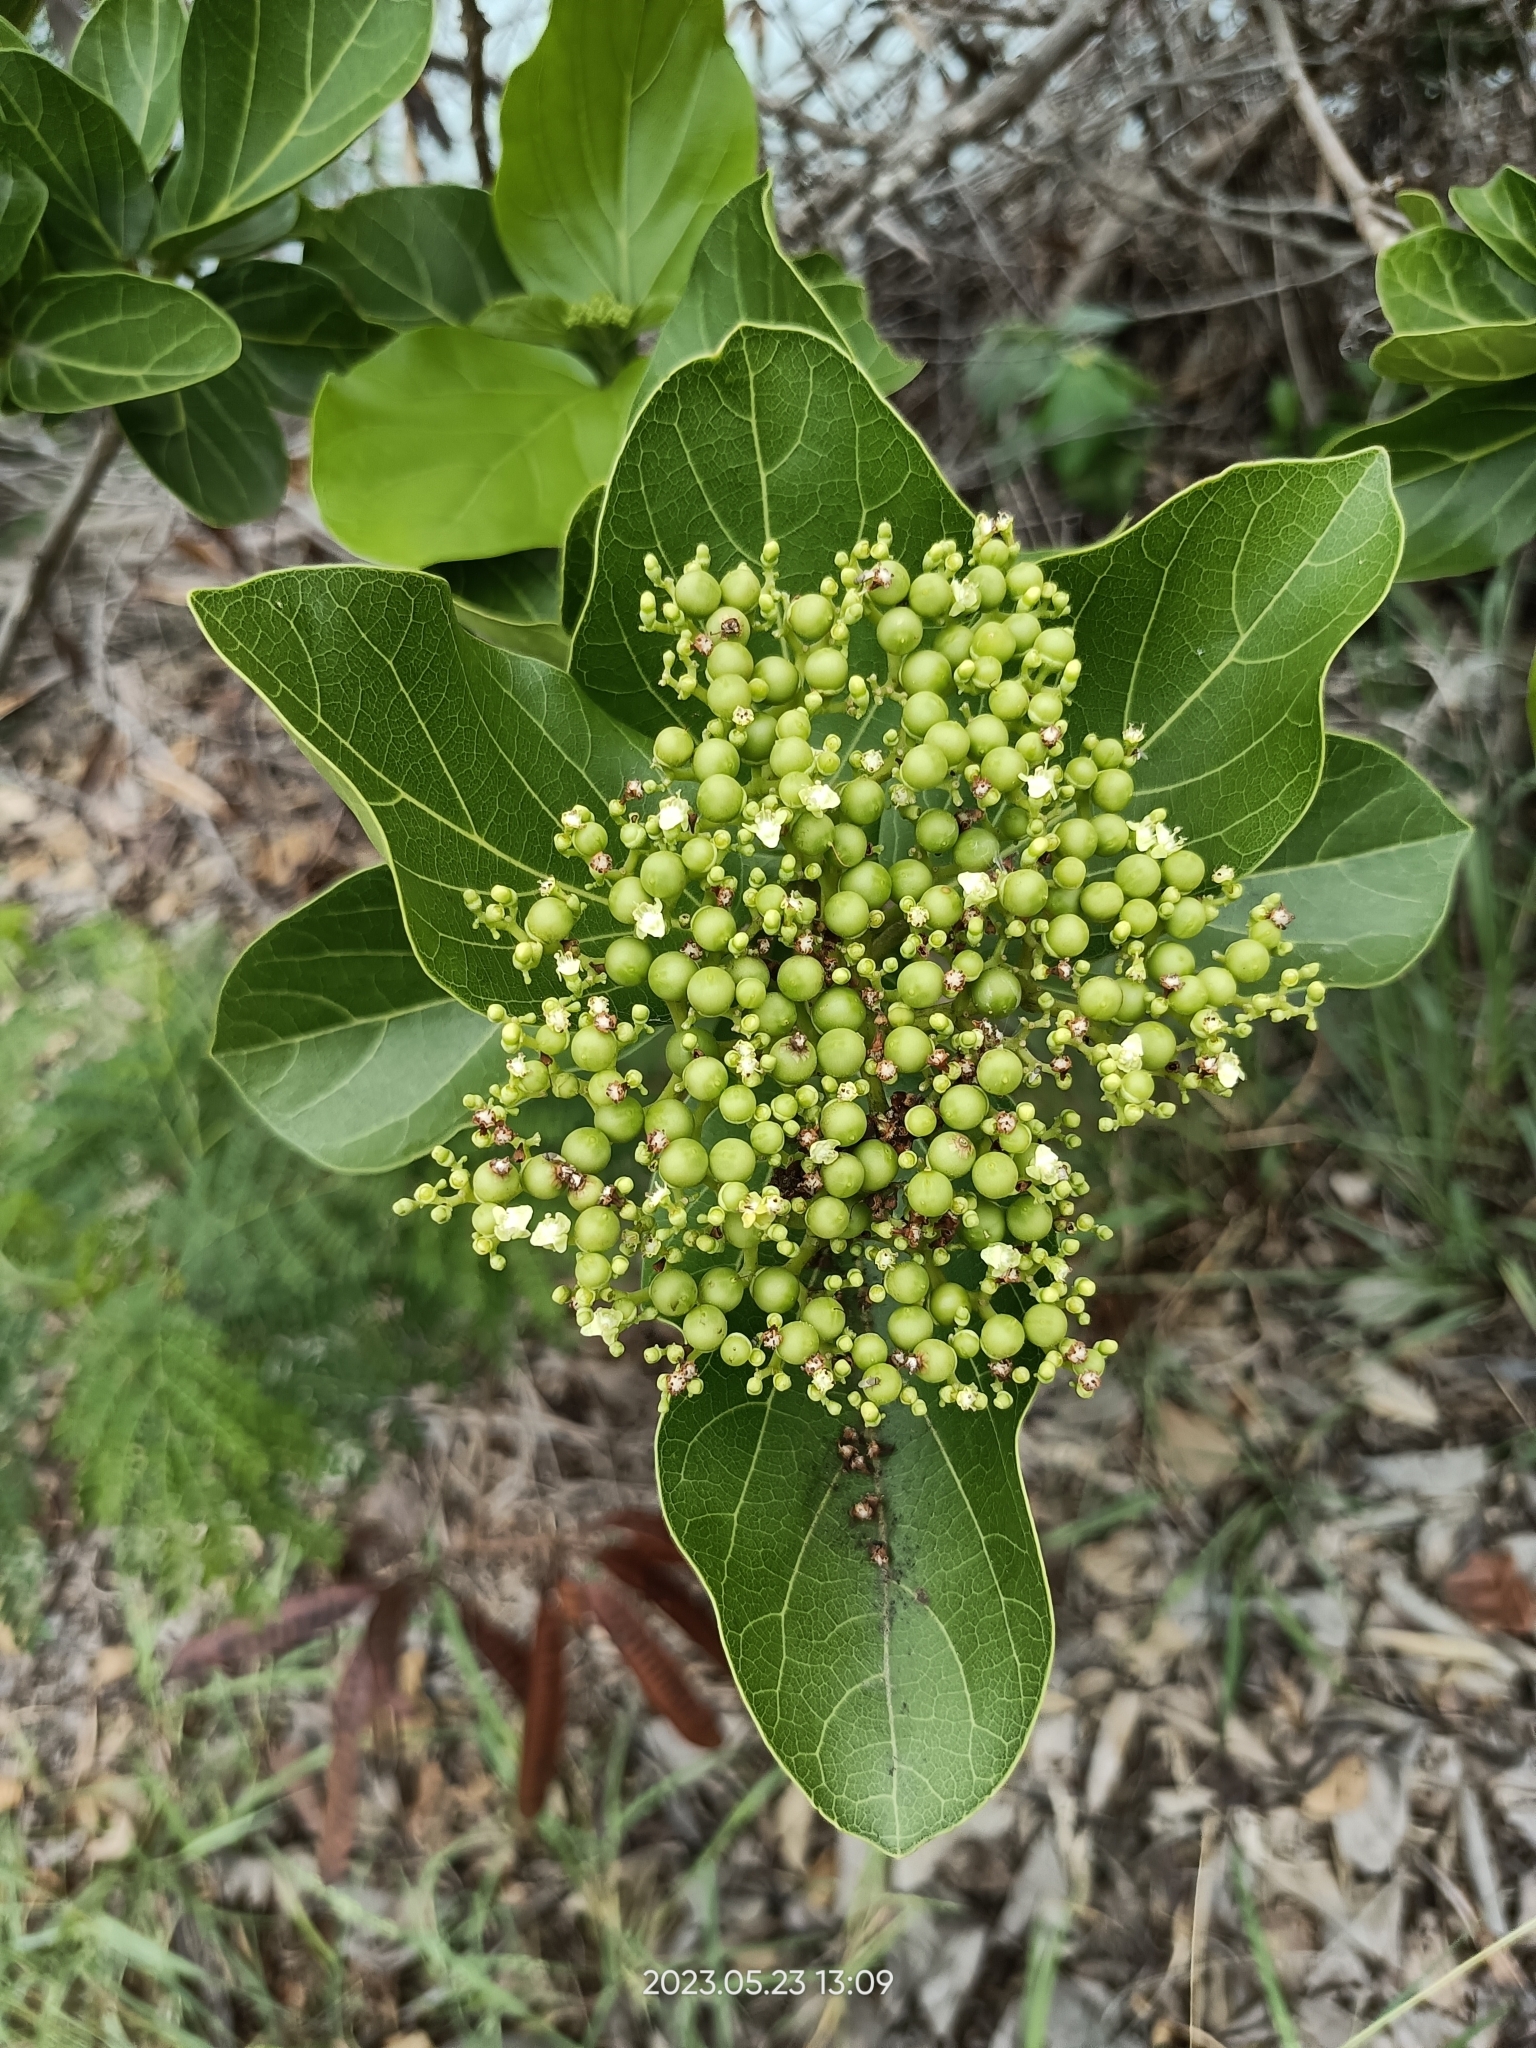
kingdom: Plantae
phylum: Tracheophyta
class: Magnoliopsida
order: Lamiales
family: Lamiaceae
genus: Premna
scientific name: Premna serratifolia
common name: Bastard guelder
